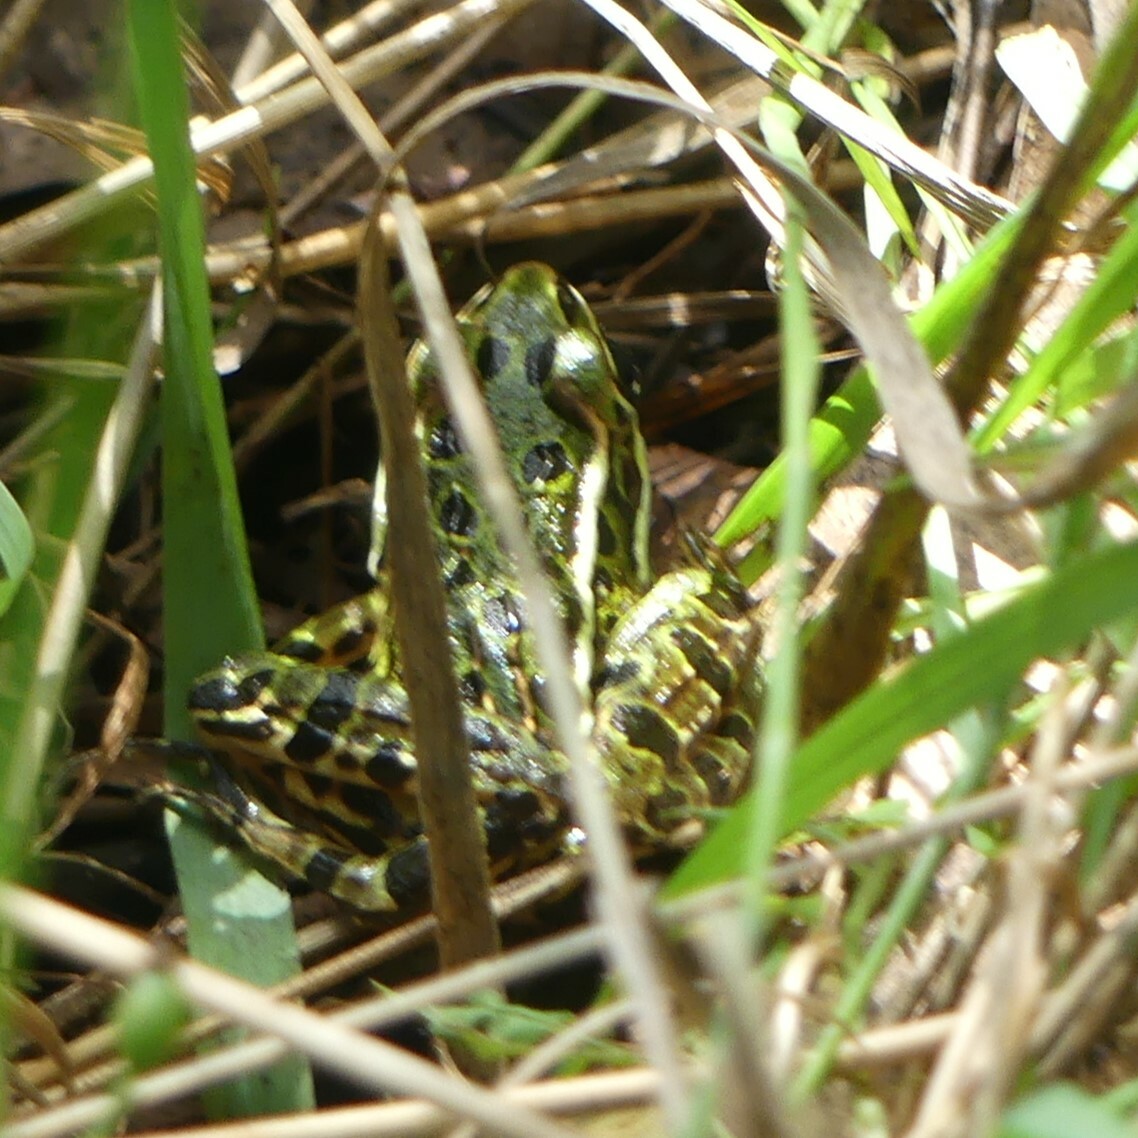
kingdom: Animalia
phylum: Chordata
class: Amphibia
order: Anura
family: Ranidae
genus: Lithobates
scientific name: Lithobates pipiens
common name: Northern leopard frog
